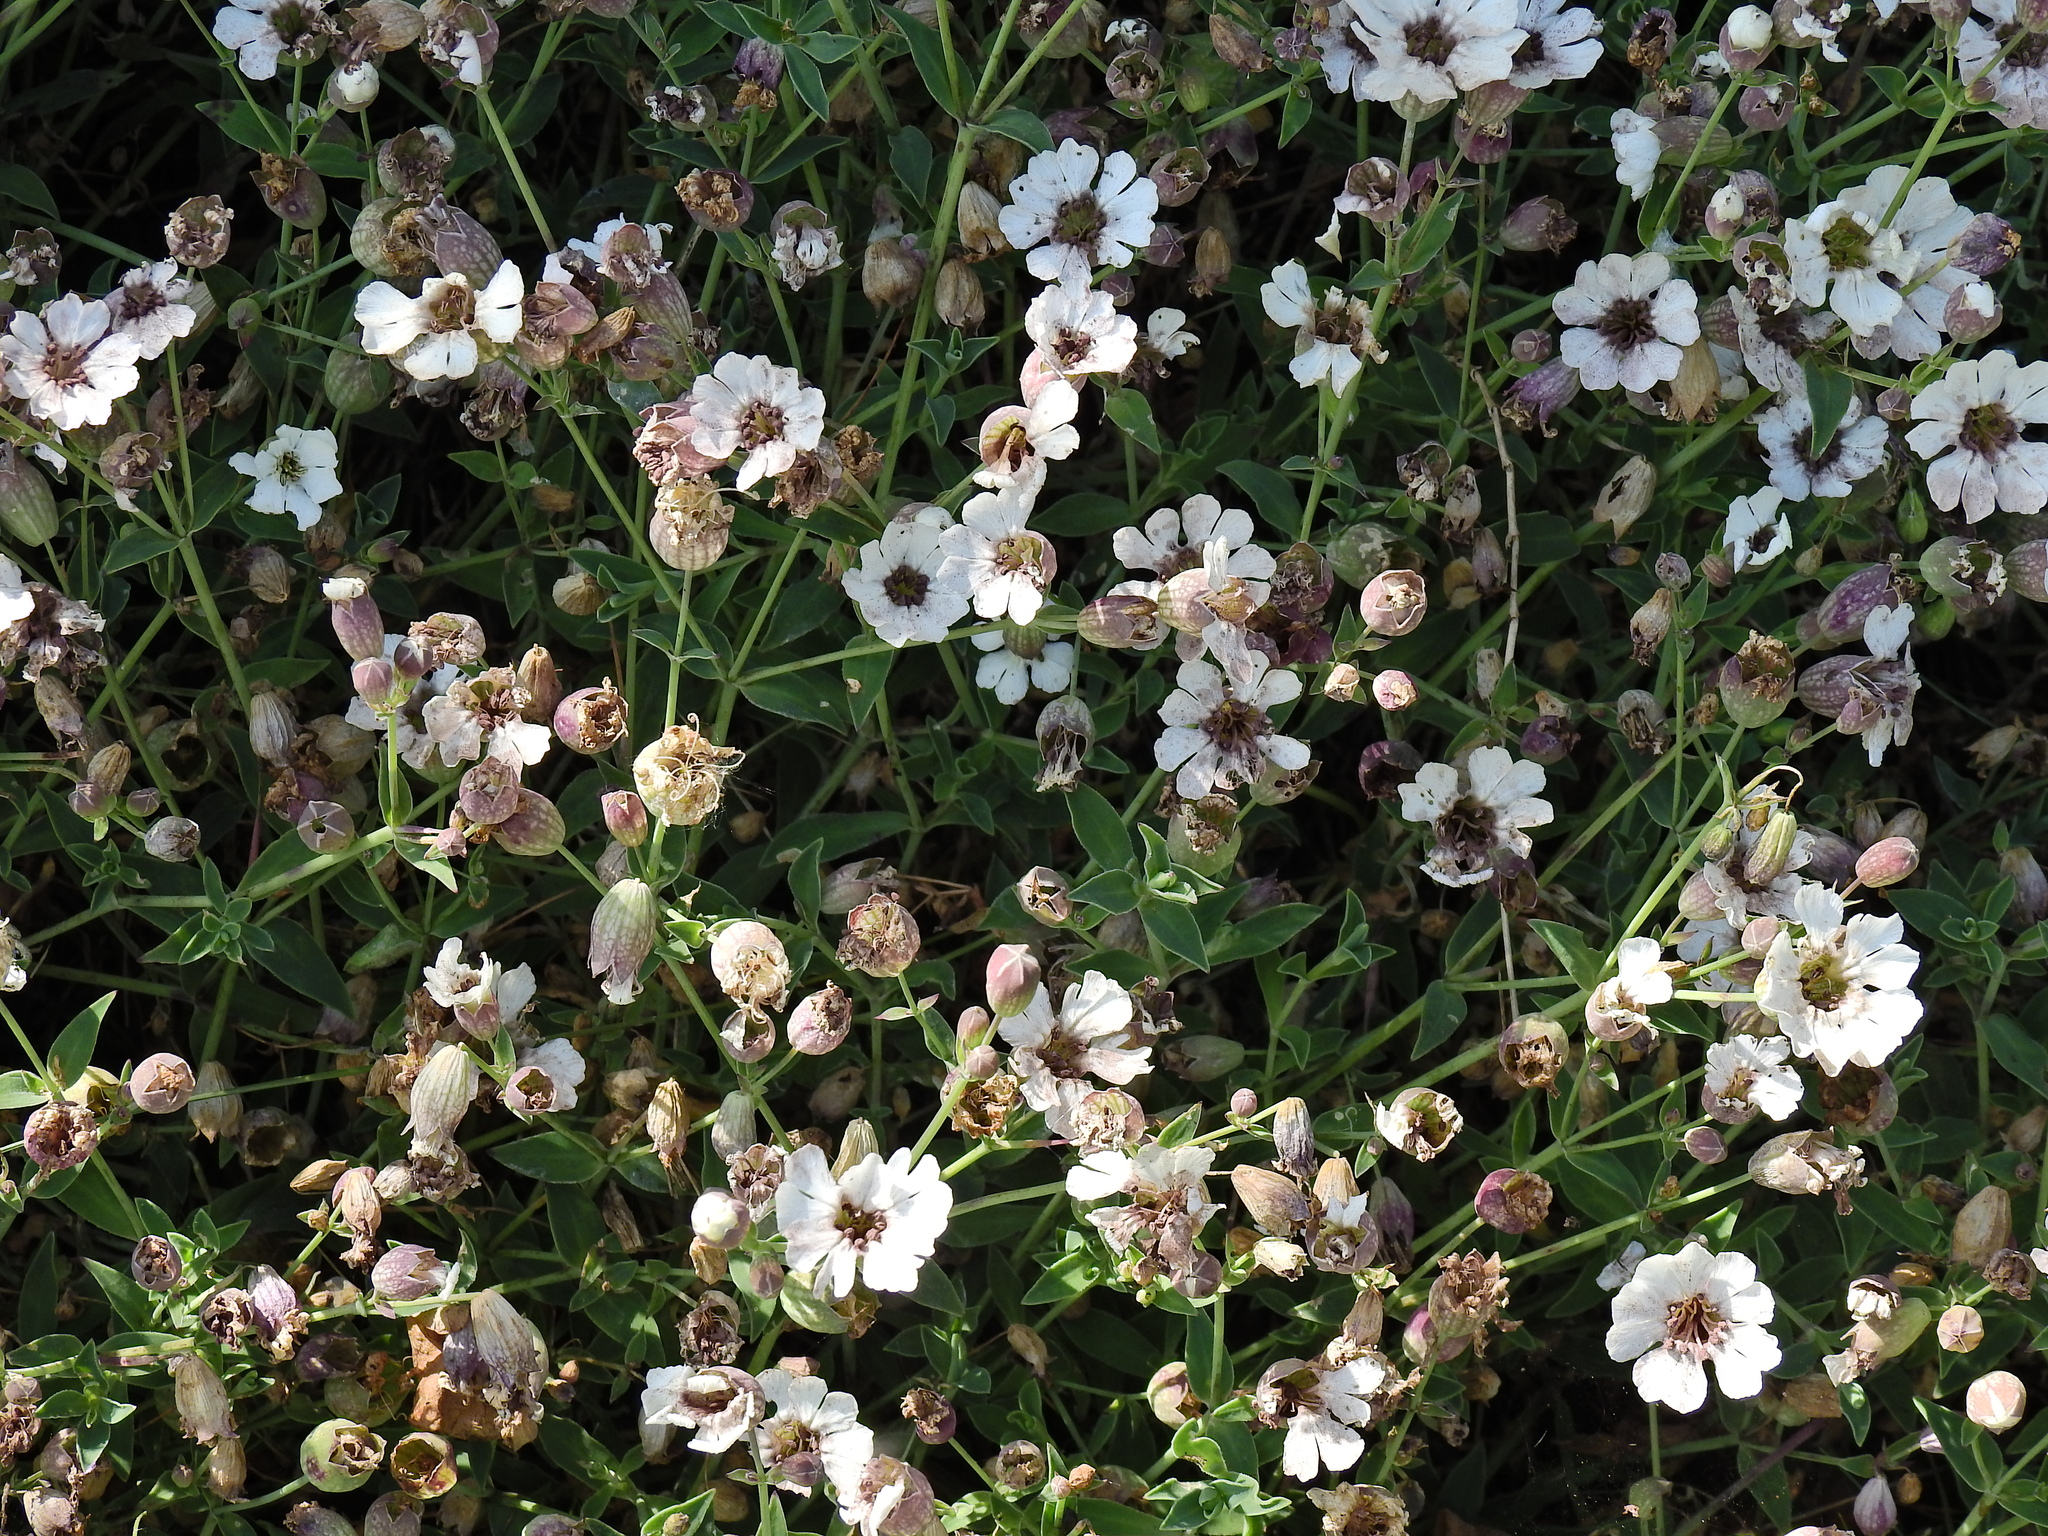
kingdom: Plantae
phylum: Tracheophyta
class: Magnoliopsida
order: Caryophyllales
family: Caryophyllaceae
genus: Silene
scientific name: Silene uniflora
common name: Sea campion
